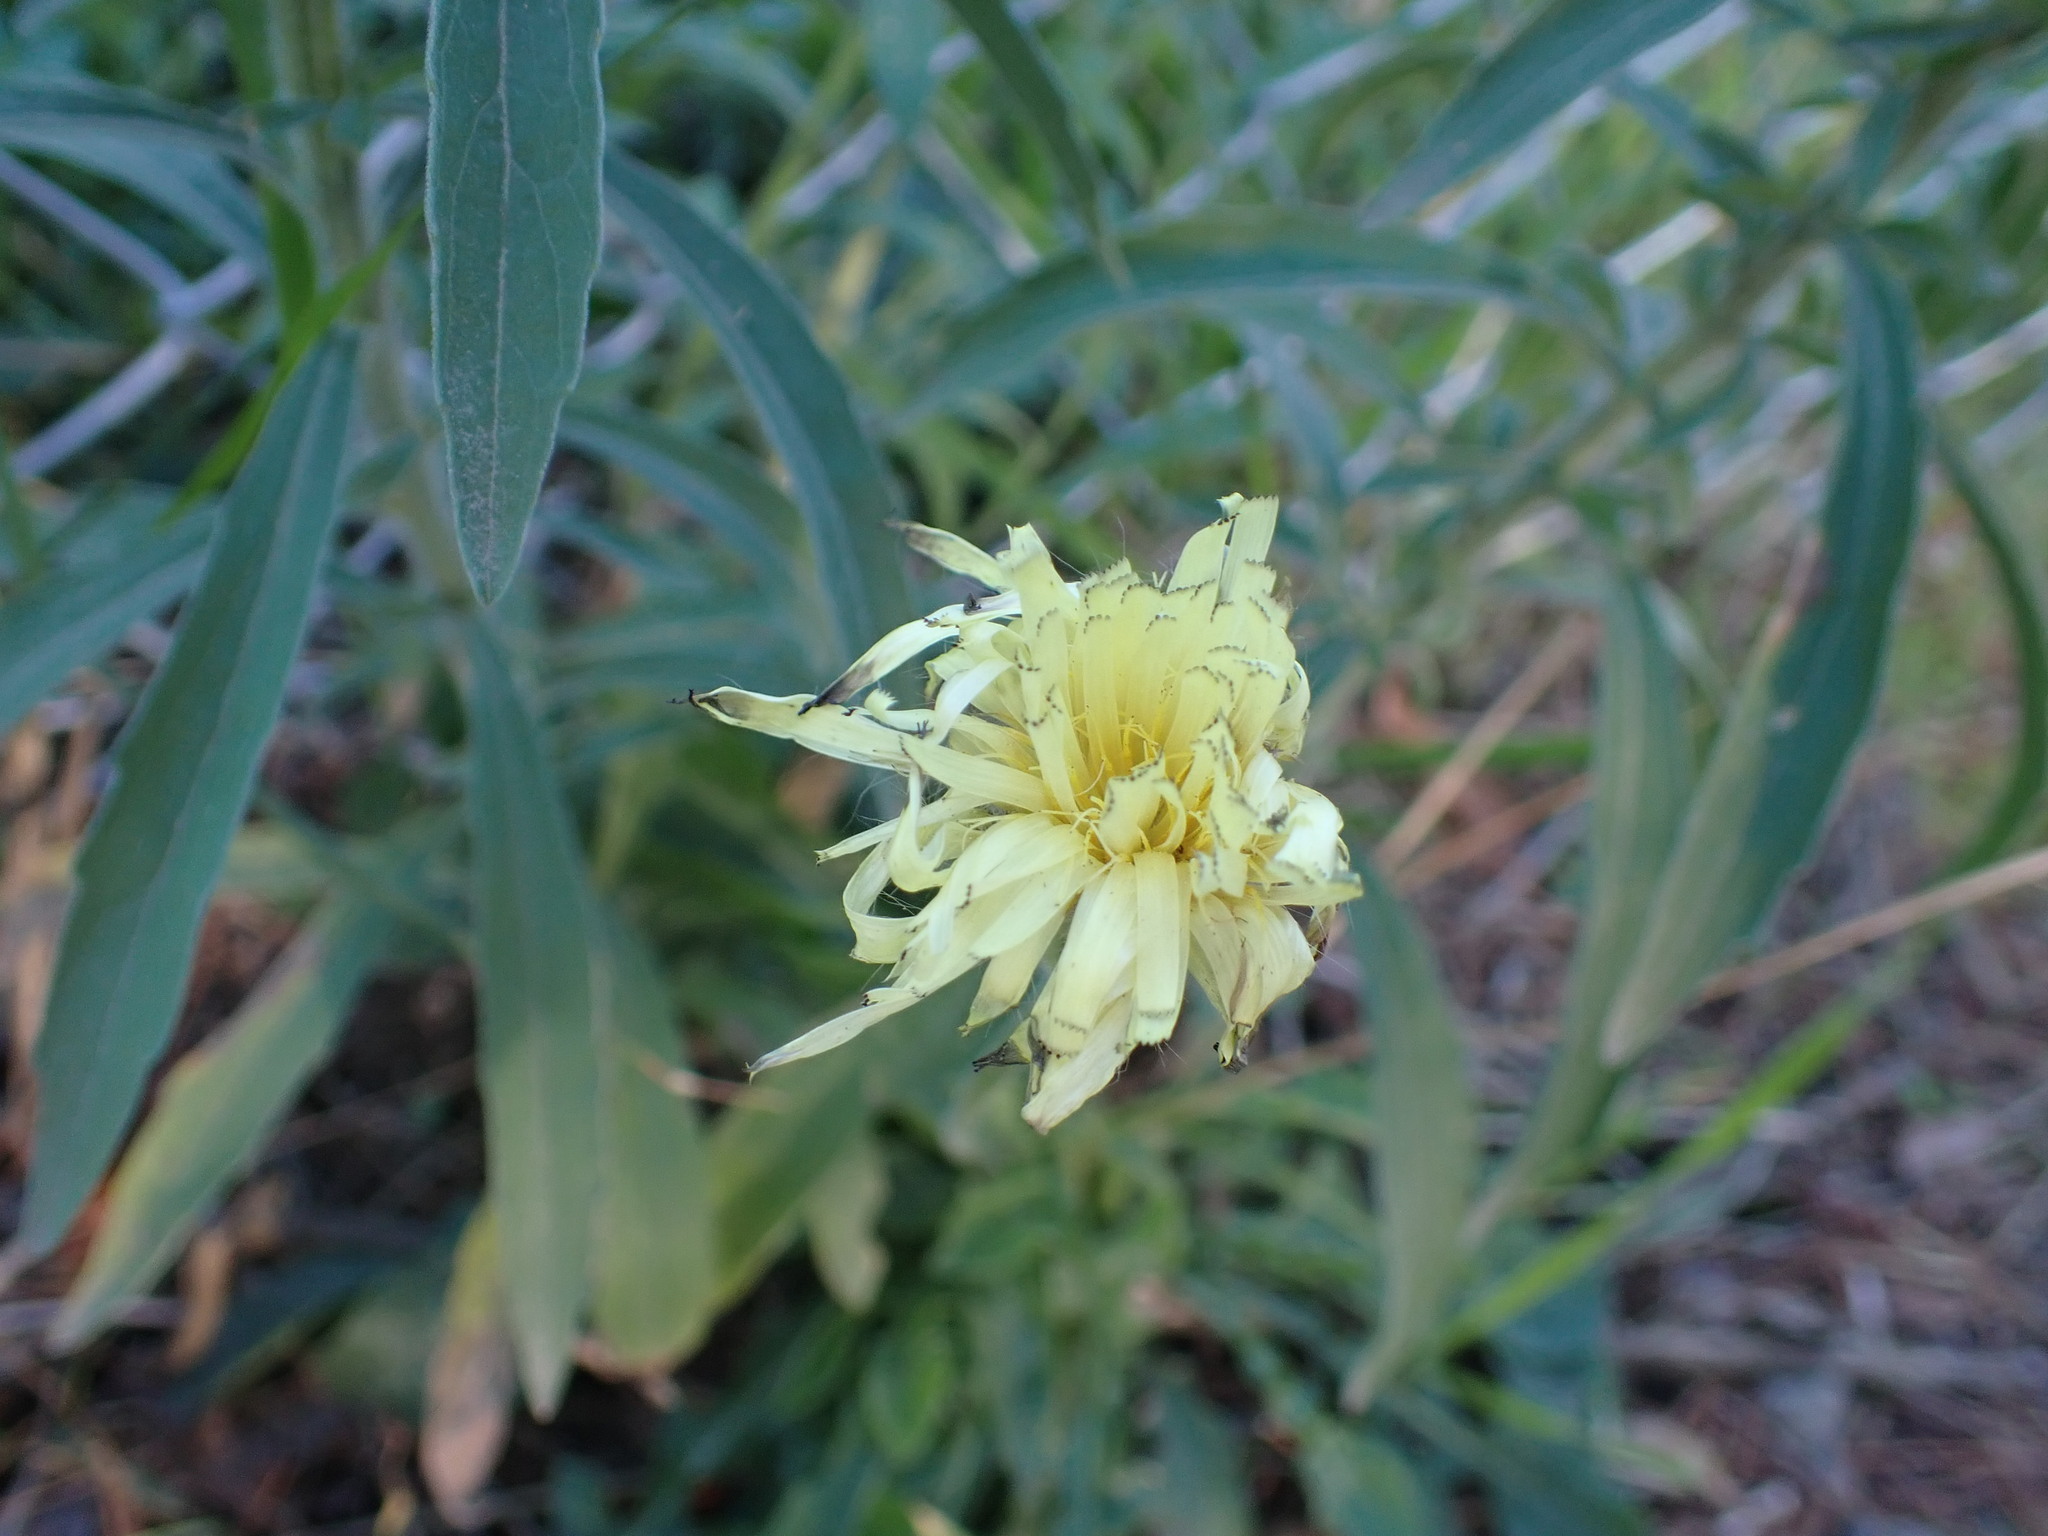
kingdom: Plantae
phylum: Tracheophyta
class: Magnoliopsida
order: Asterales
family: Asteraceae
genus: Urospermum
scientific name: Urospermum dalechampii
